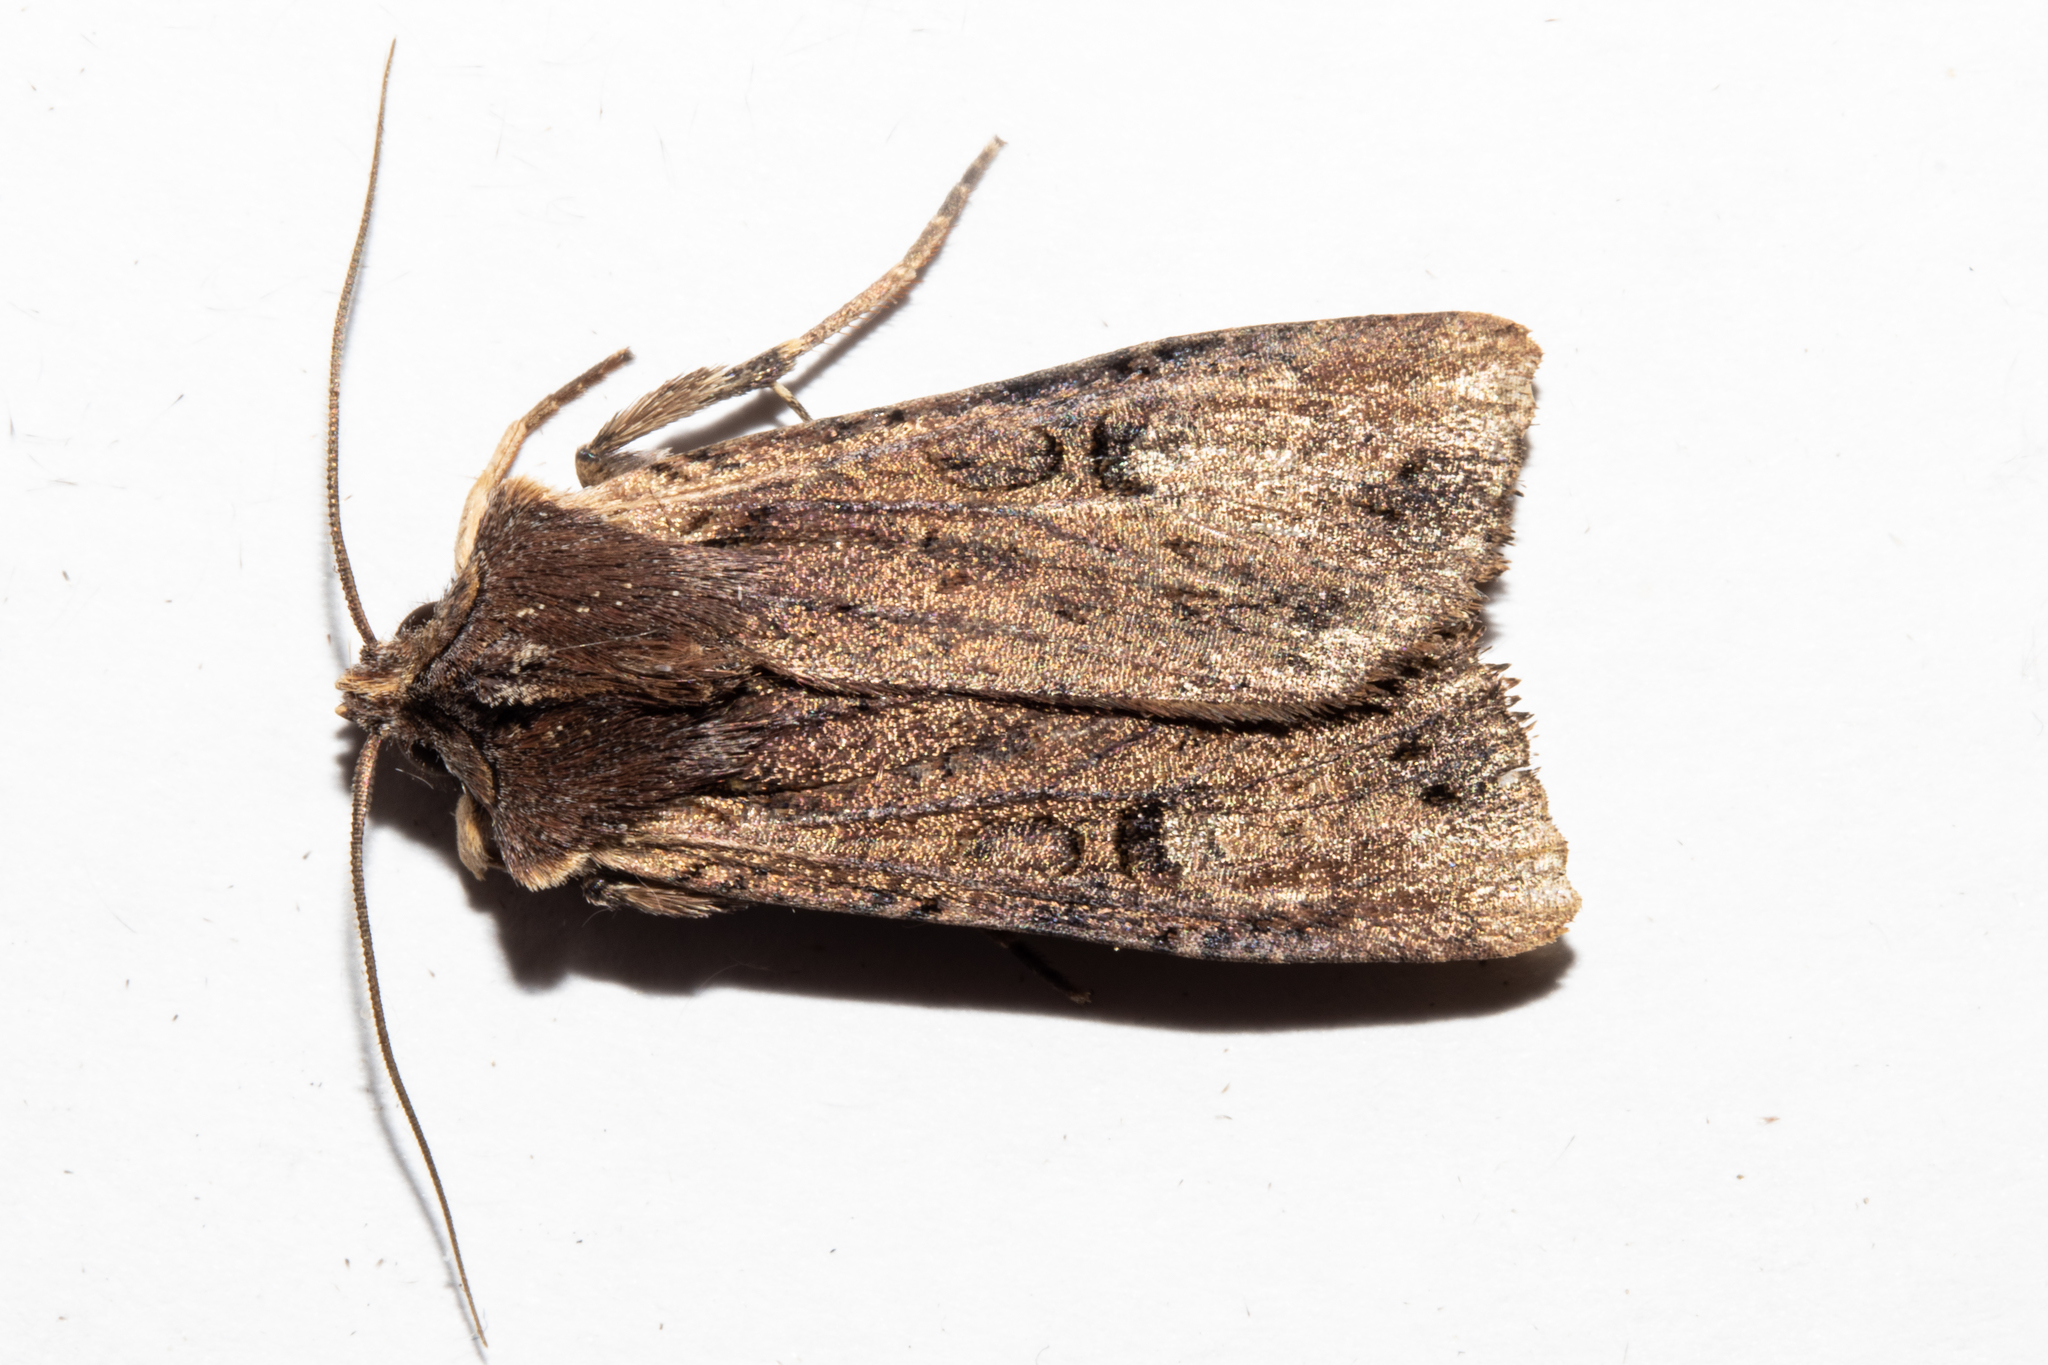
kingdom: Animalia
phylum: Arthropoda
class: Insecta
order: Lepidoptera
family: Noctuidae
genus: Ichneutica
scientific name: Ichneutica omoplaca
